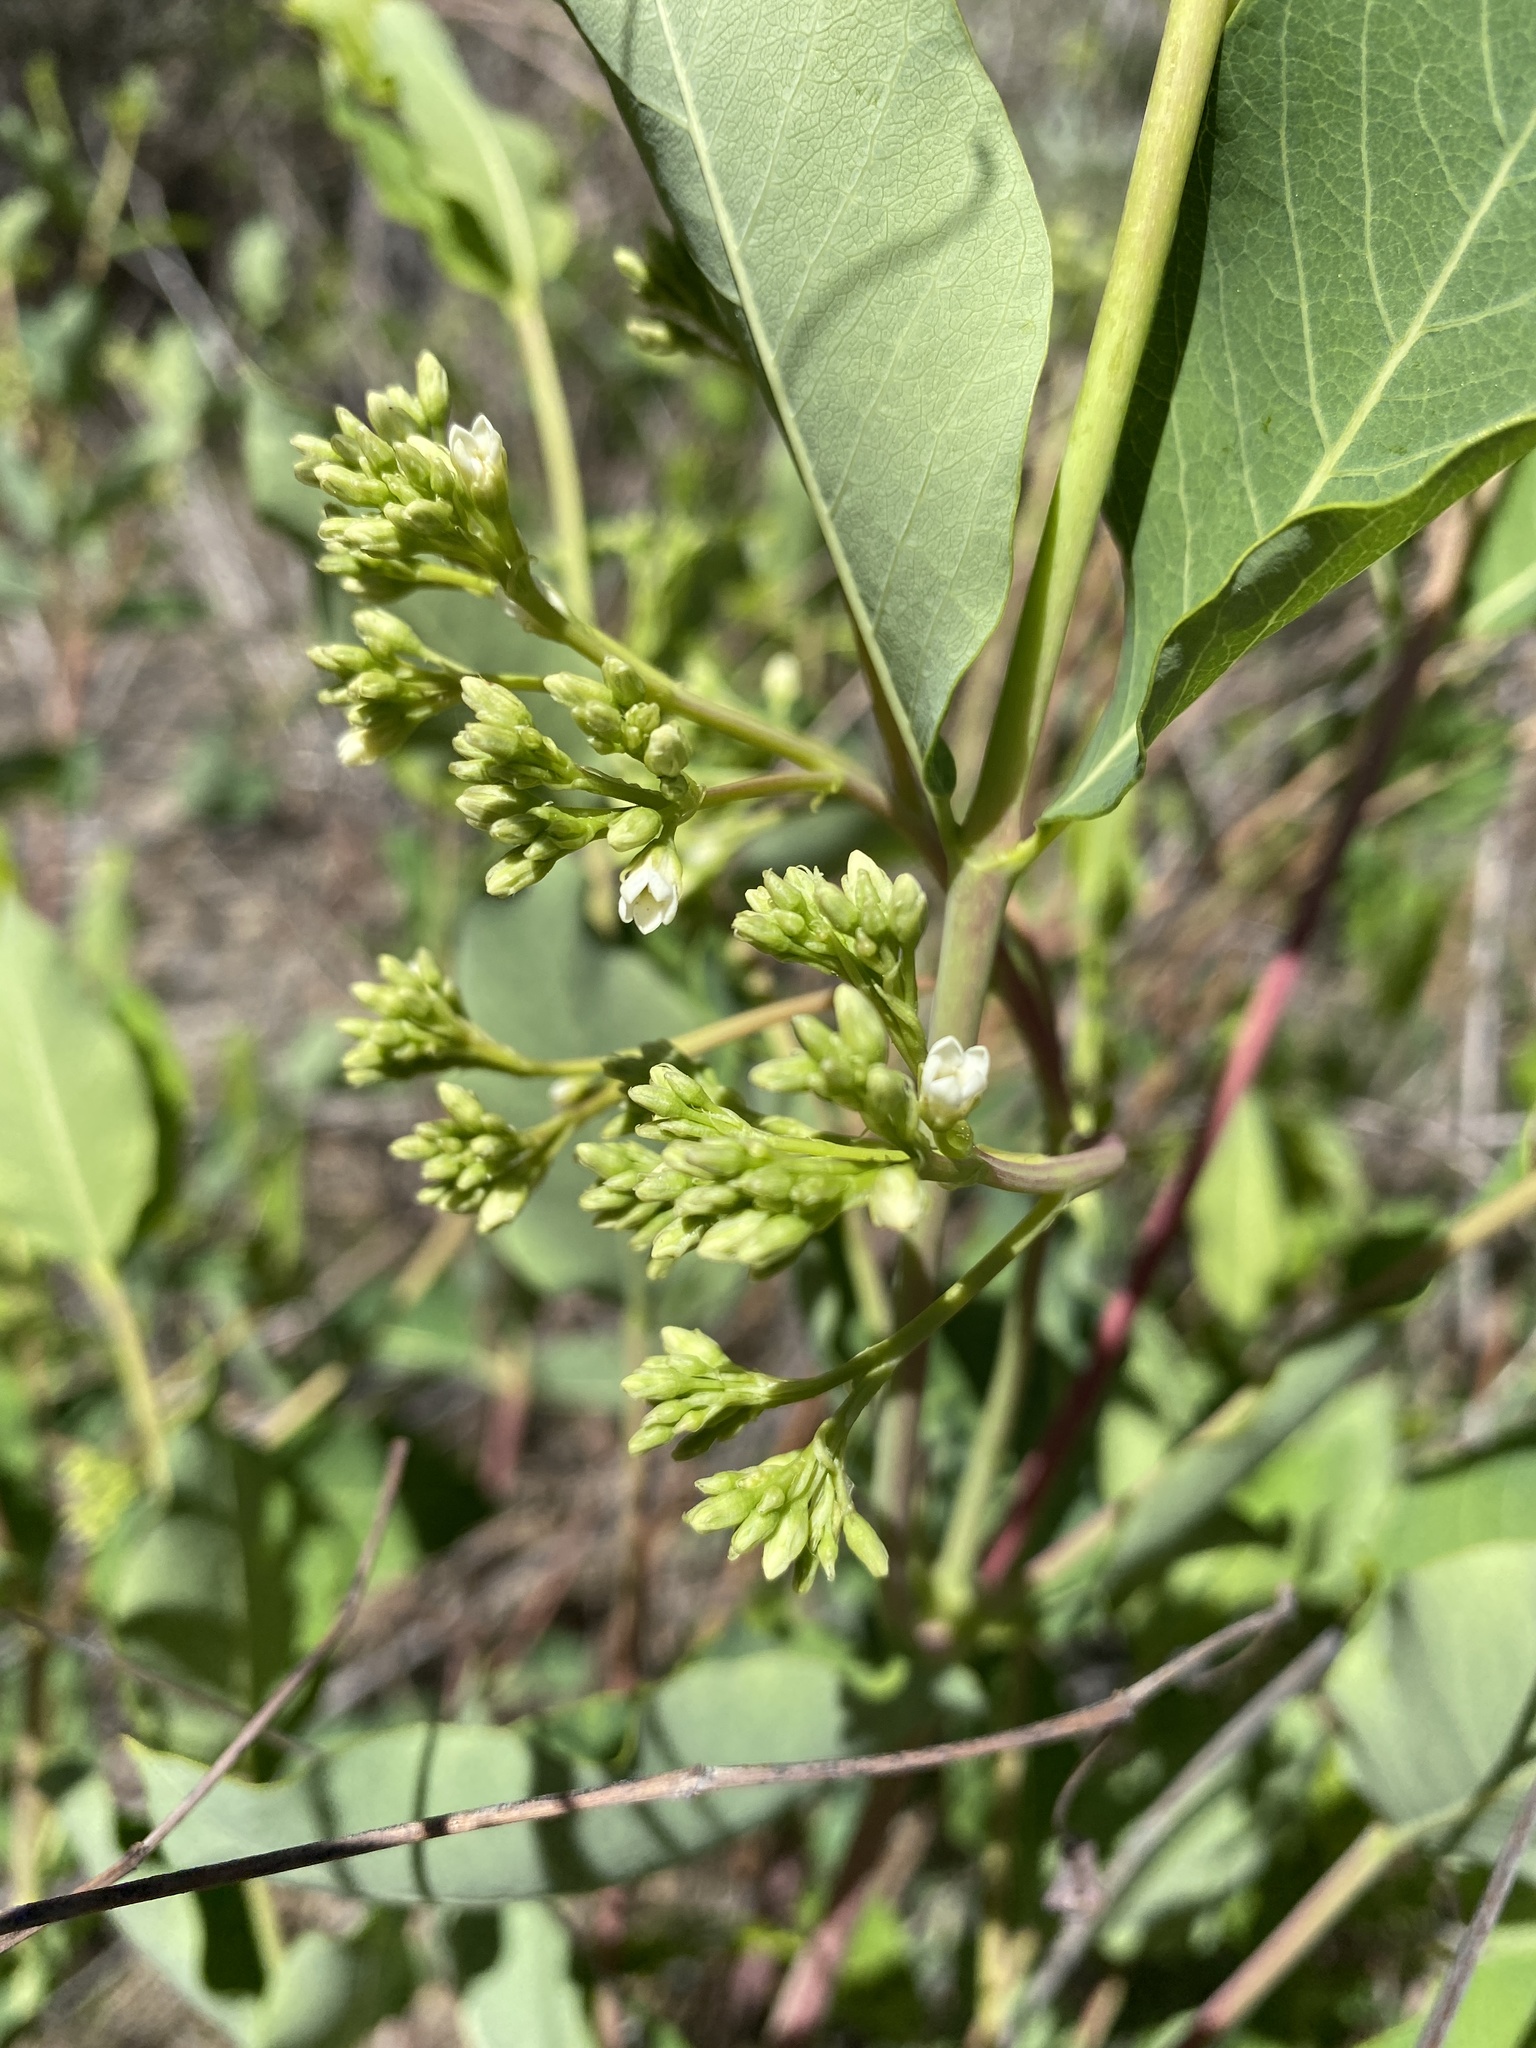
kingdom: Plantae
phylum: Tracheophyta
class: Magnoliopsida
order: Gentianales
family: Apocynaceae
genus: Apocynum
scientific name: Apocynum cannabinum
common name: Hemp dogbane
